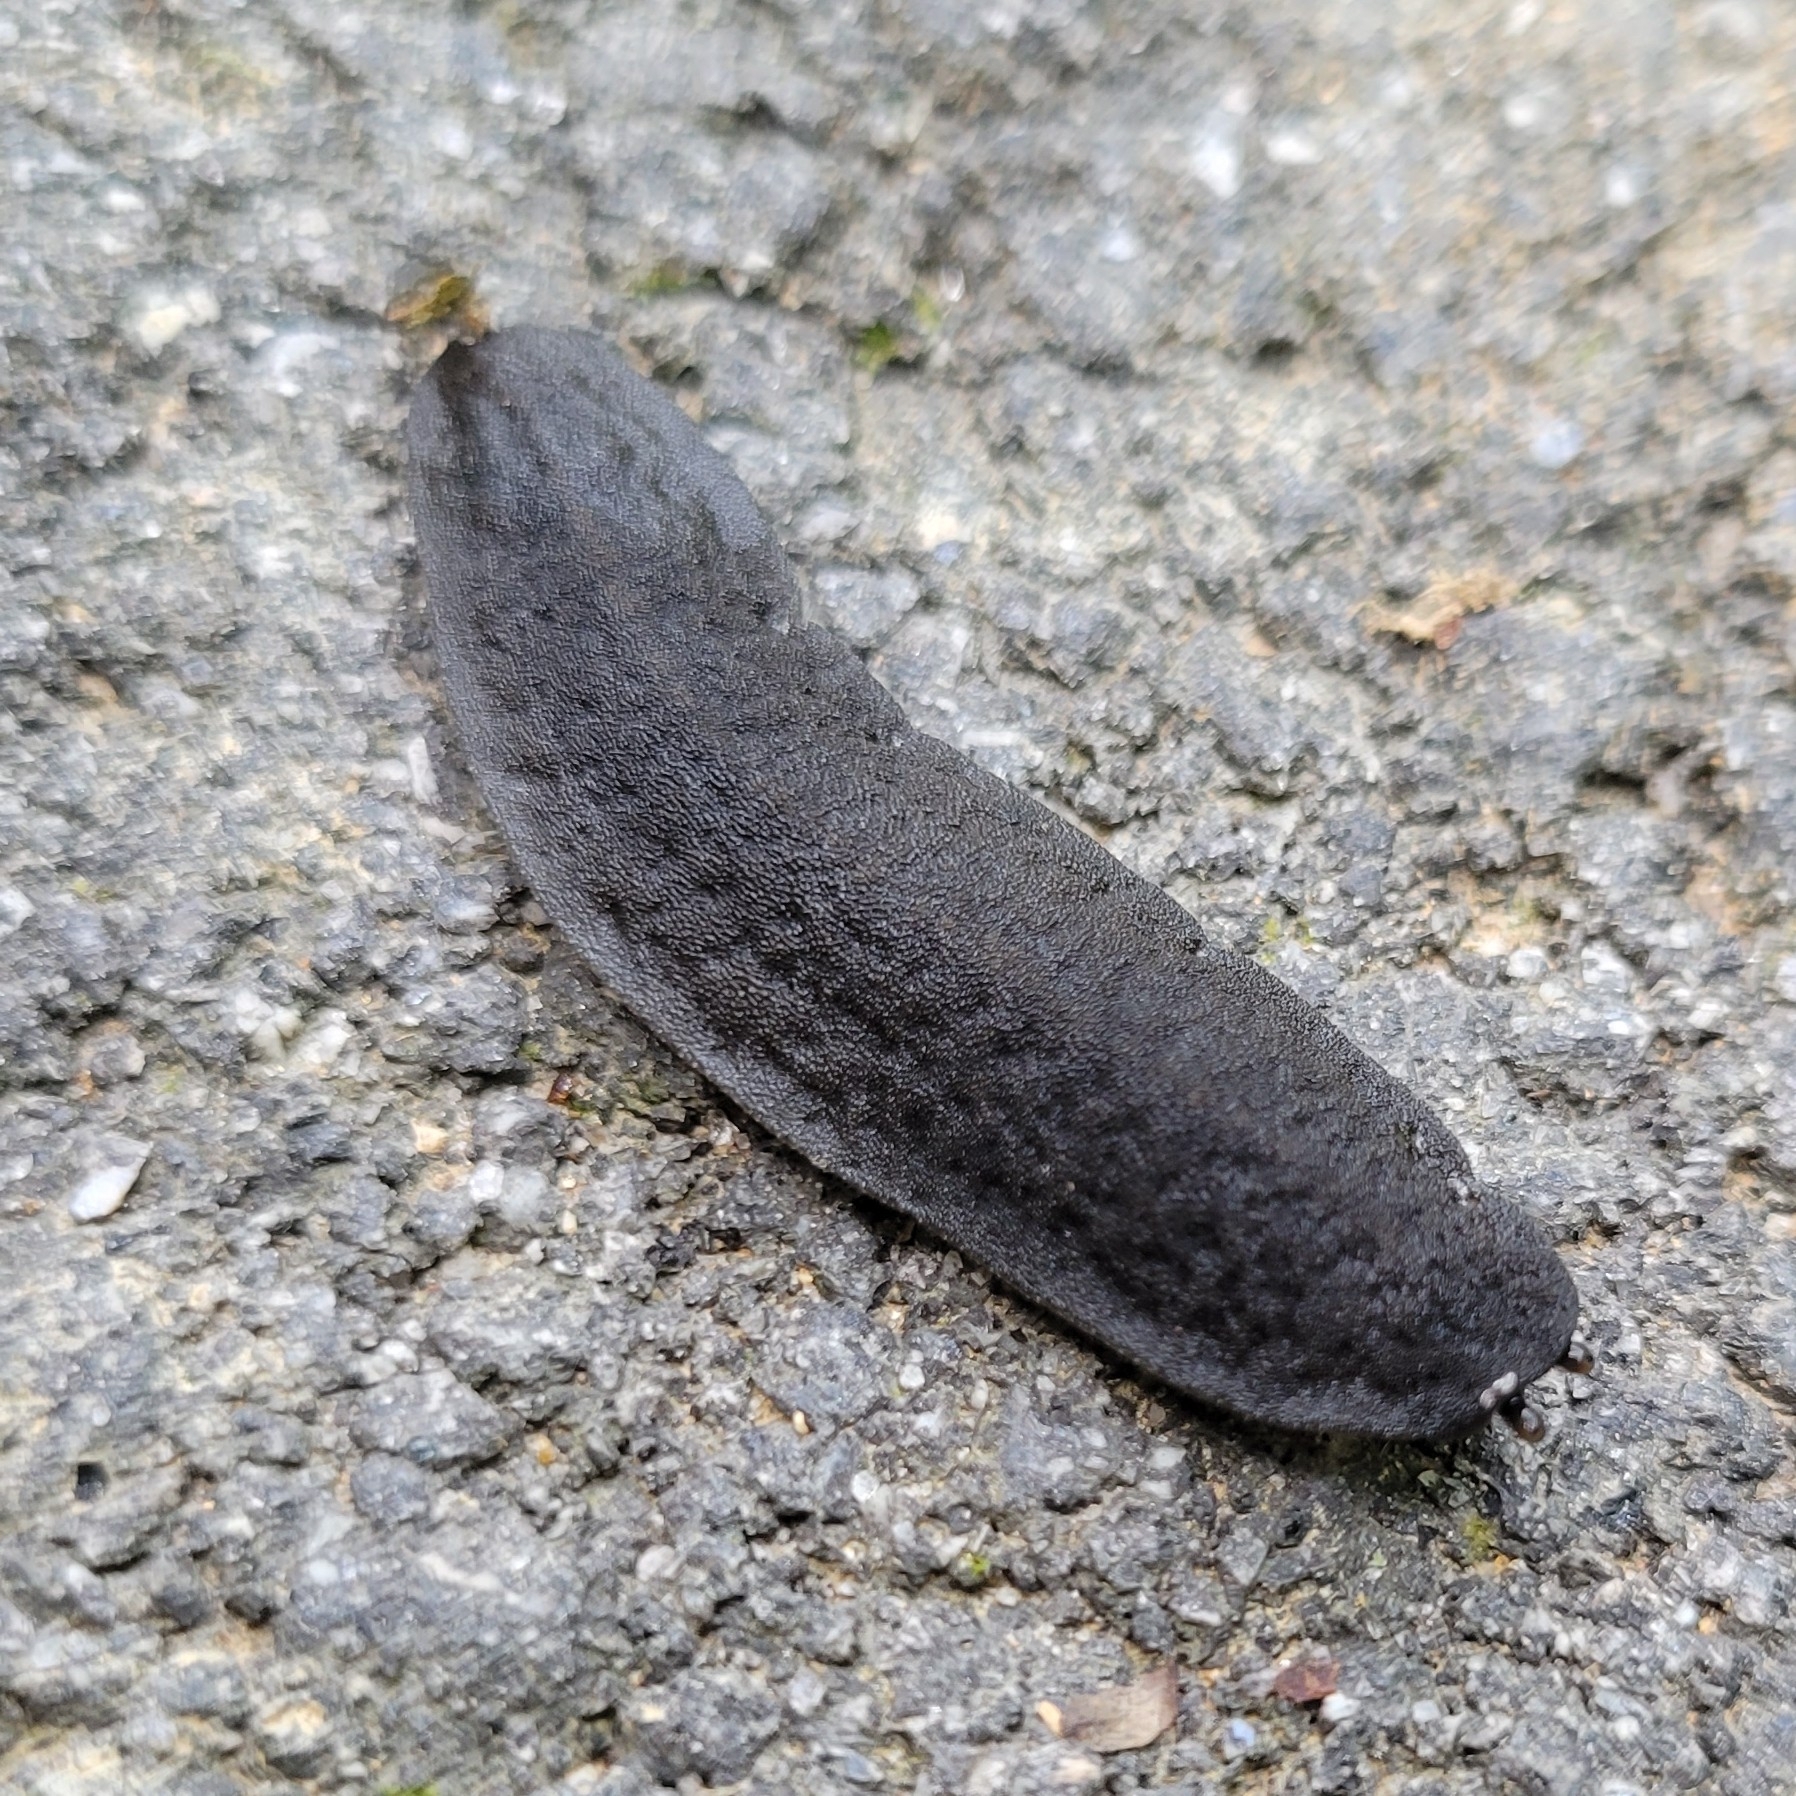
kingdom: Animalia
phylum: Mollusca
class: Gastropoda
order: Systellommatophora
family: Veronicellidae
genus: Belocaulus
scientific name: Belocaulus angustipes
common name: Black velvet leatherleaf slug
